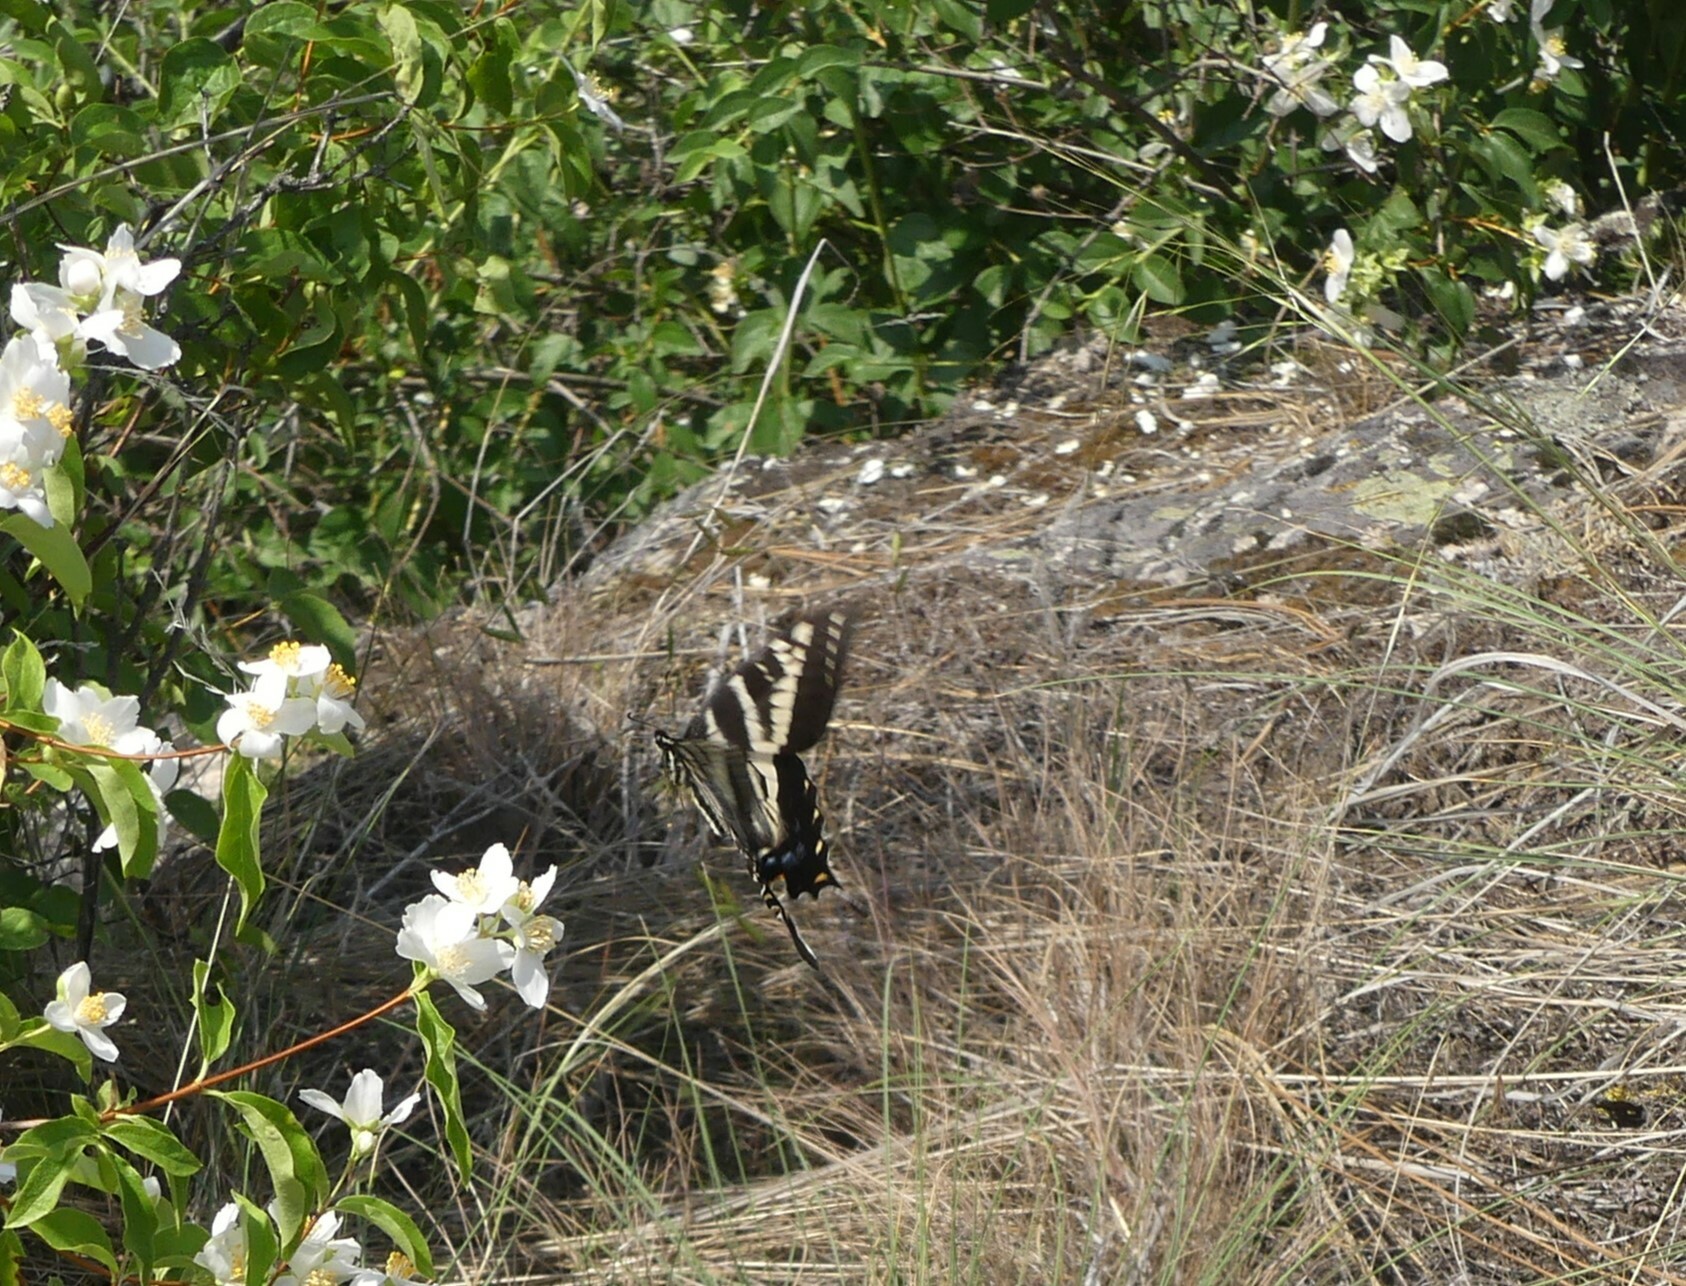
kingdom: Animalia
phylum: Arthropoda
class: Insecta
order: Lepidoptera
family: Papilionidae
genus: Papilio
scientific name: Papilio eurymedon
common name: Pale tiger swallowtail
